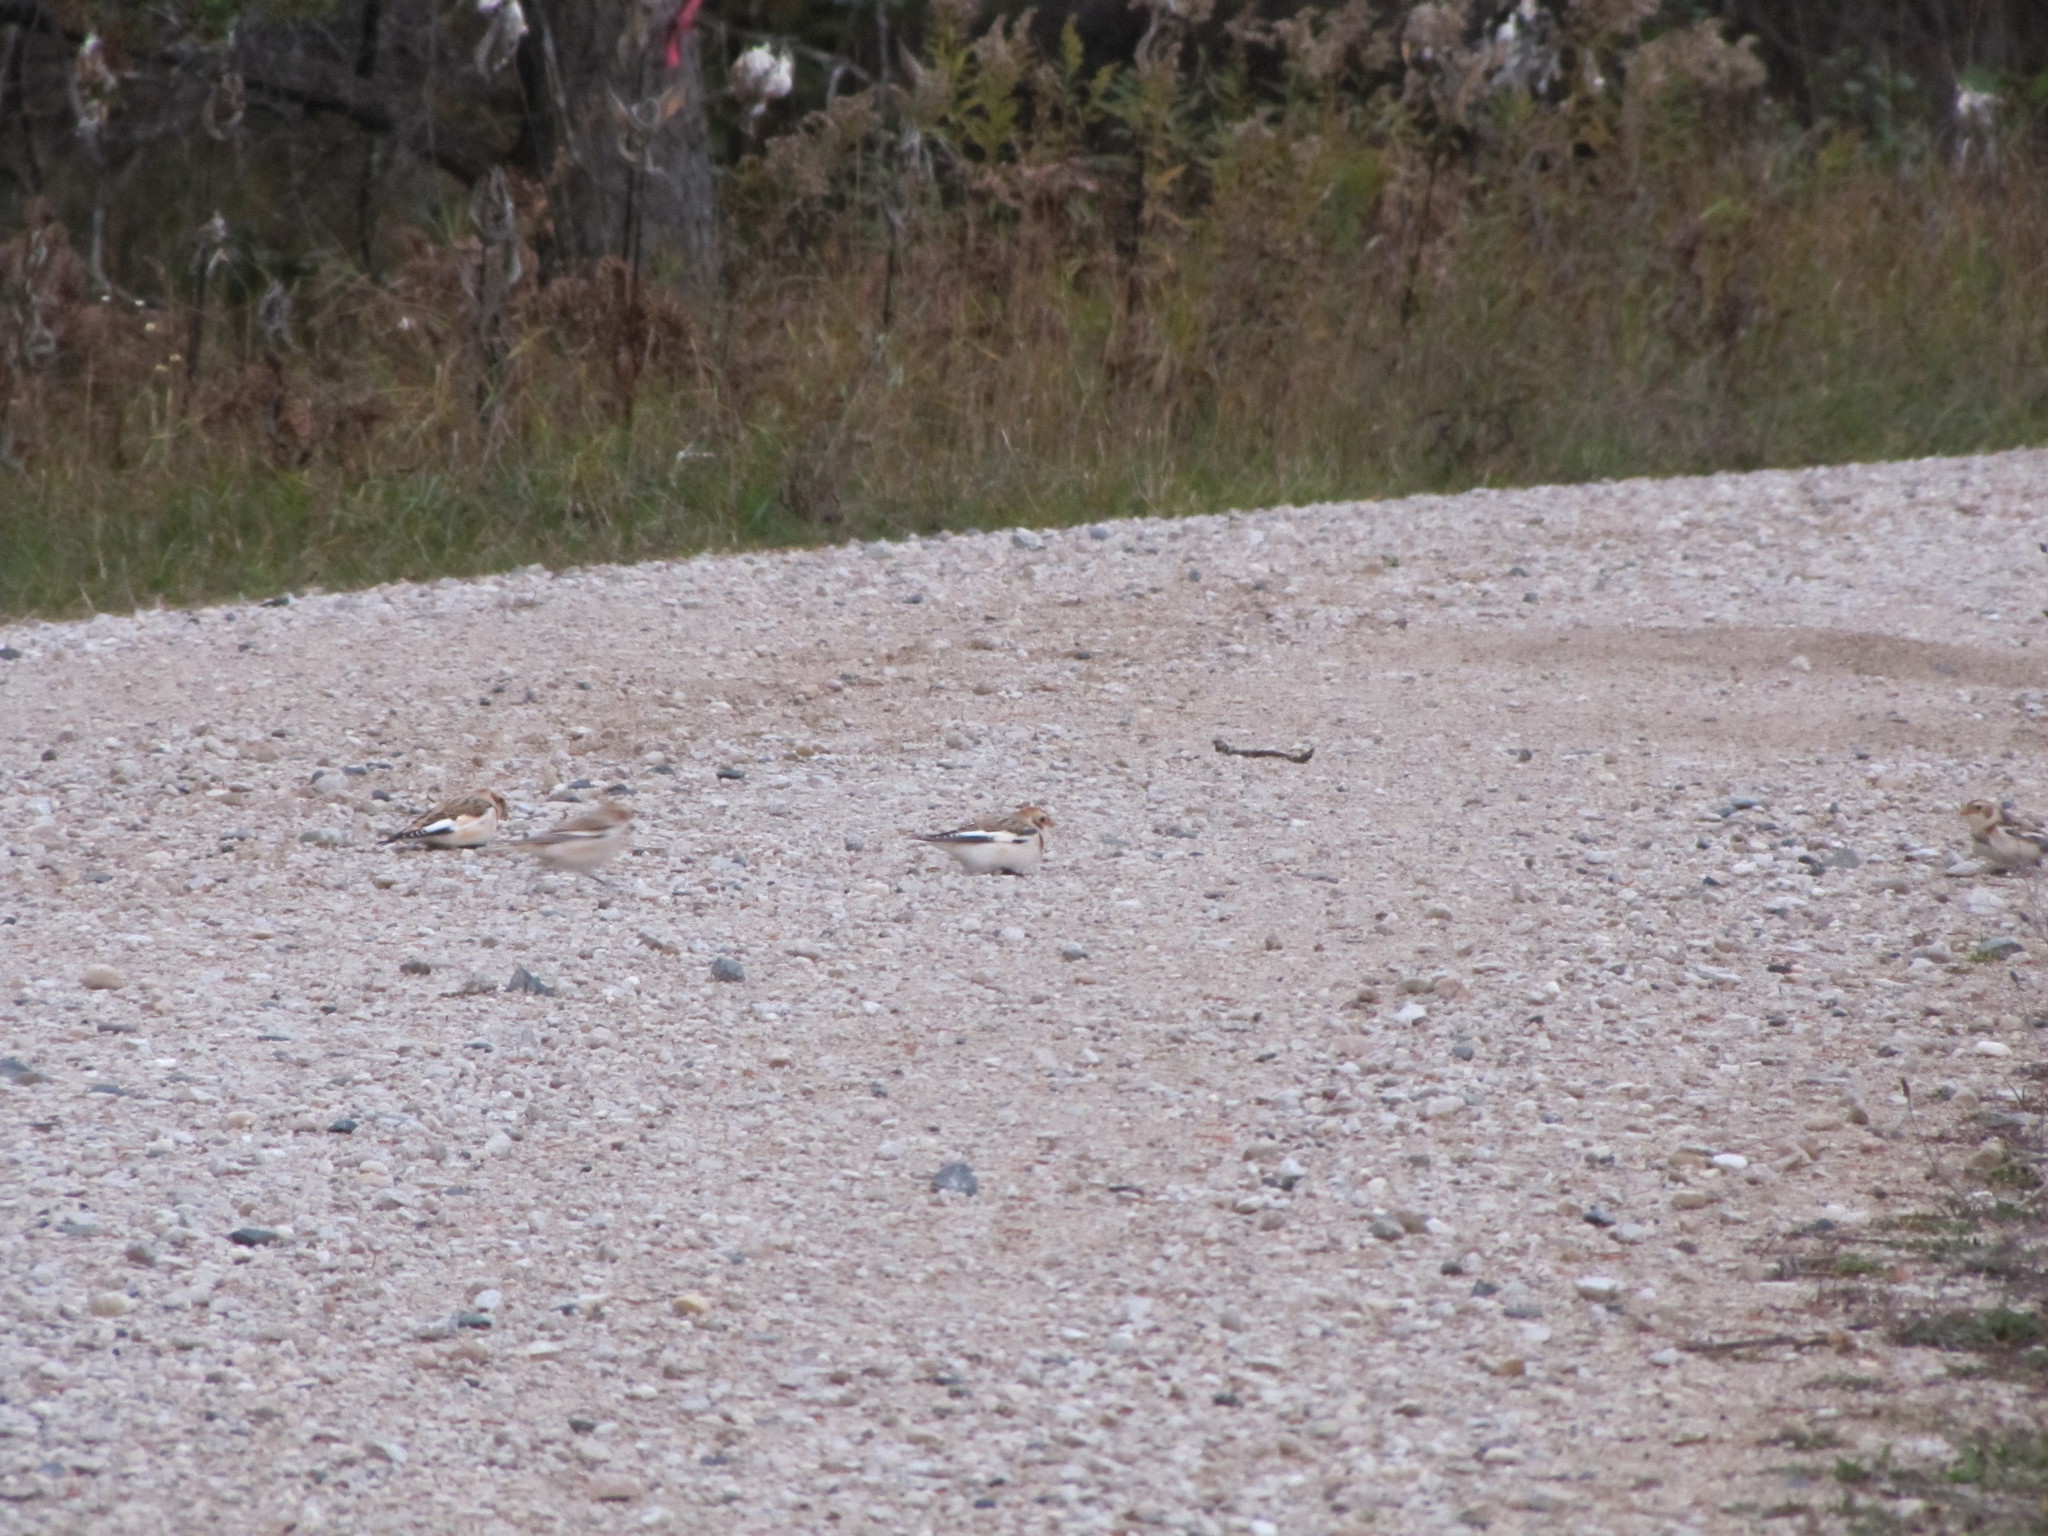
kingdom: Animalia
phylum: Chordata
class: Aves
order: Passeriformes
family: Calcariidae
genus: Plectrophenax
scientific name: Plectrophenax nivalis
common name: Snow bunting
